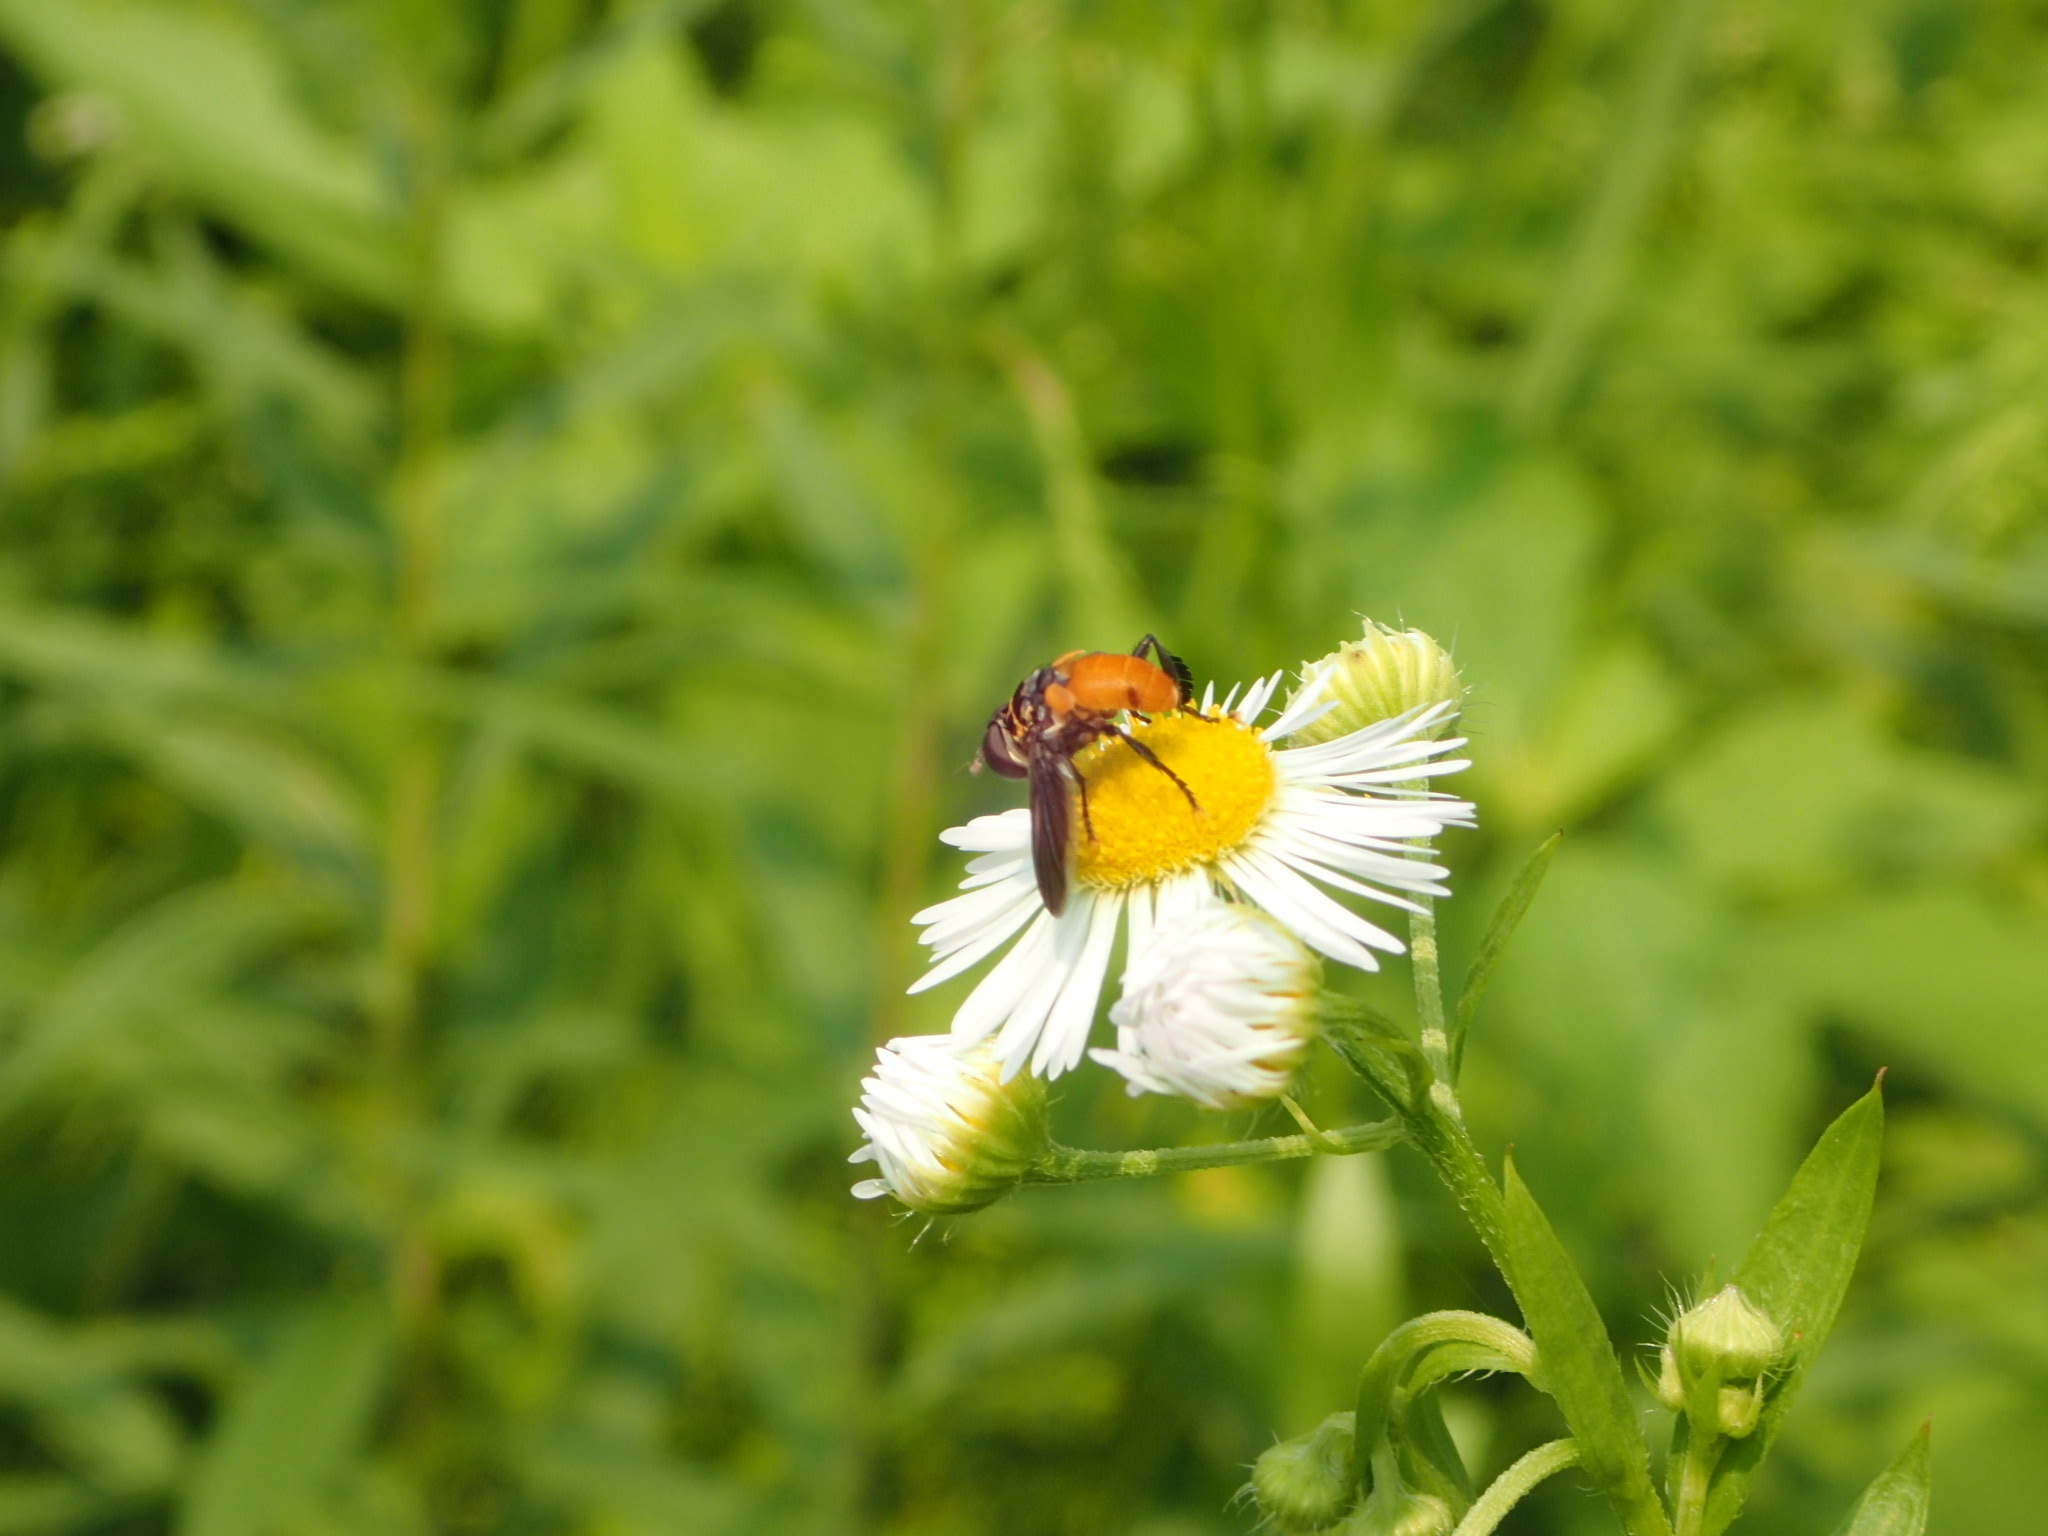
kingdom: Animalia
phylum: Arthropoda
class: Insecta
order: Diptera
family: Tachinidae
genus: Trichopoda
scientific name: Trichopoda pennipes
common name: Tachinid fly
